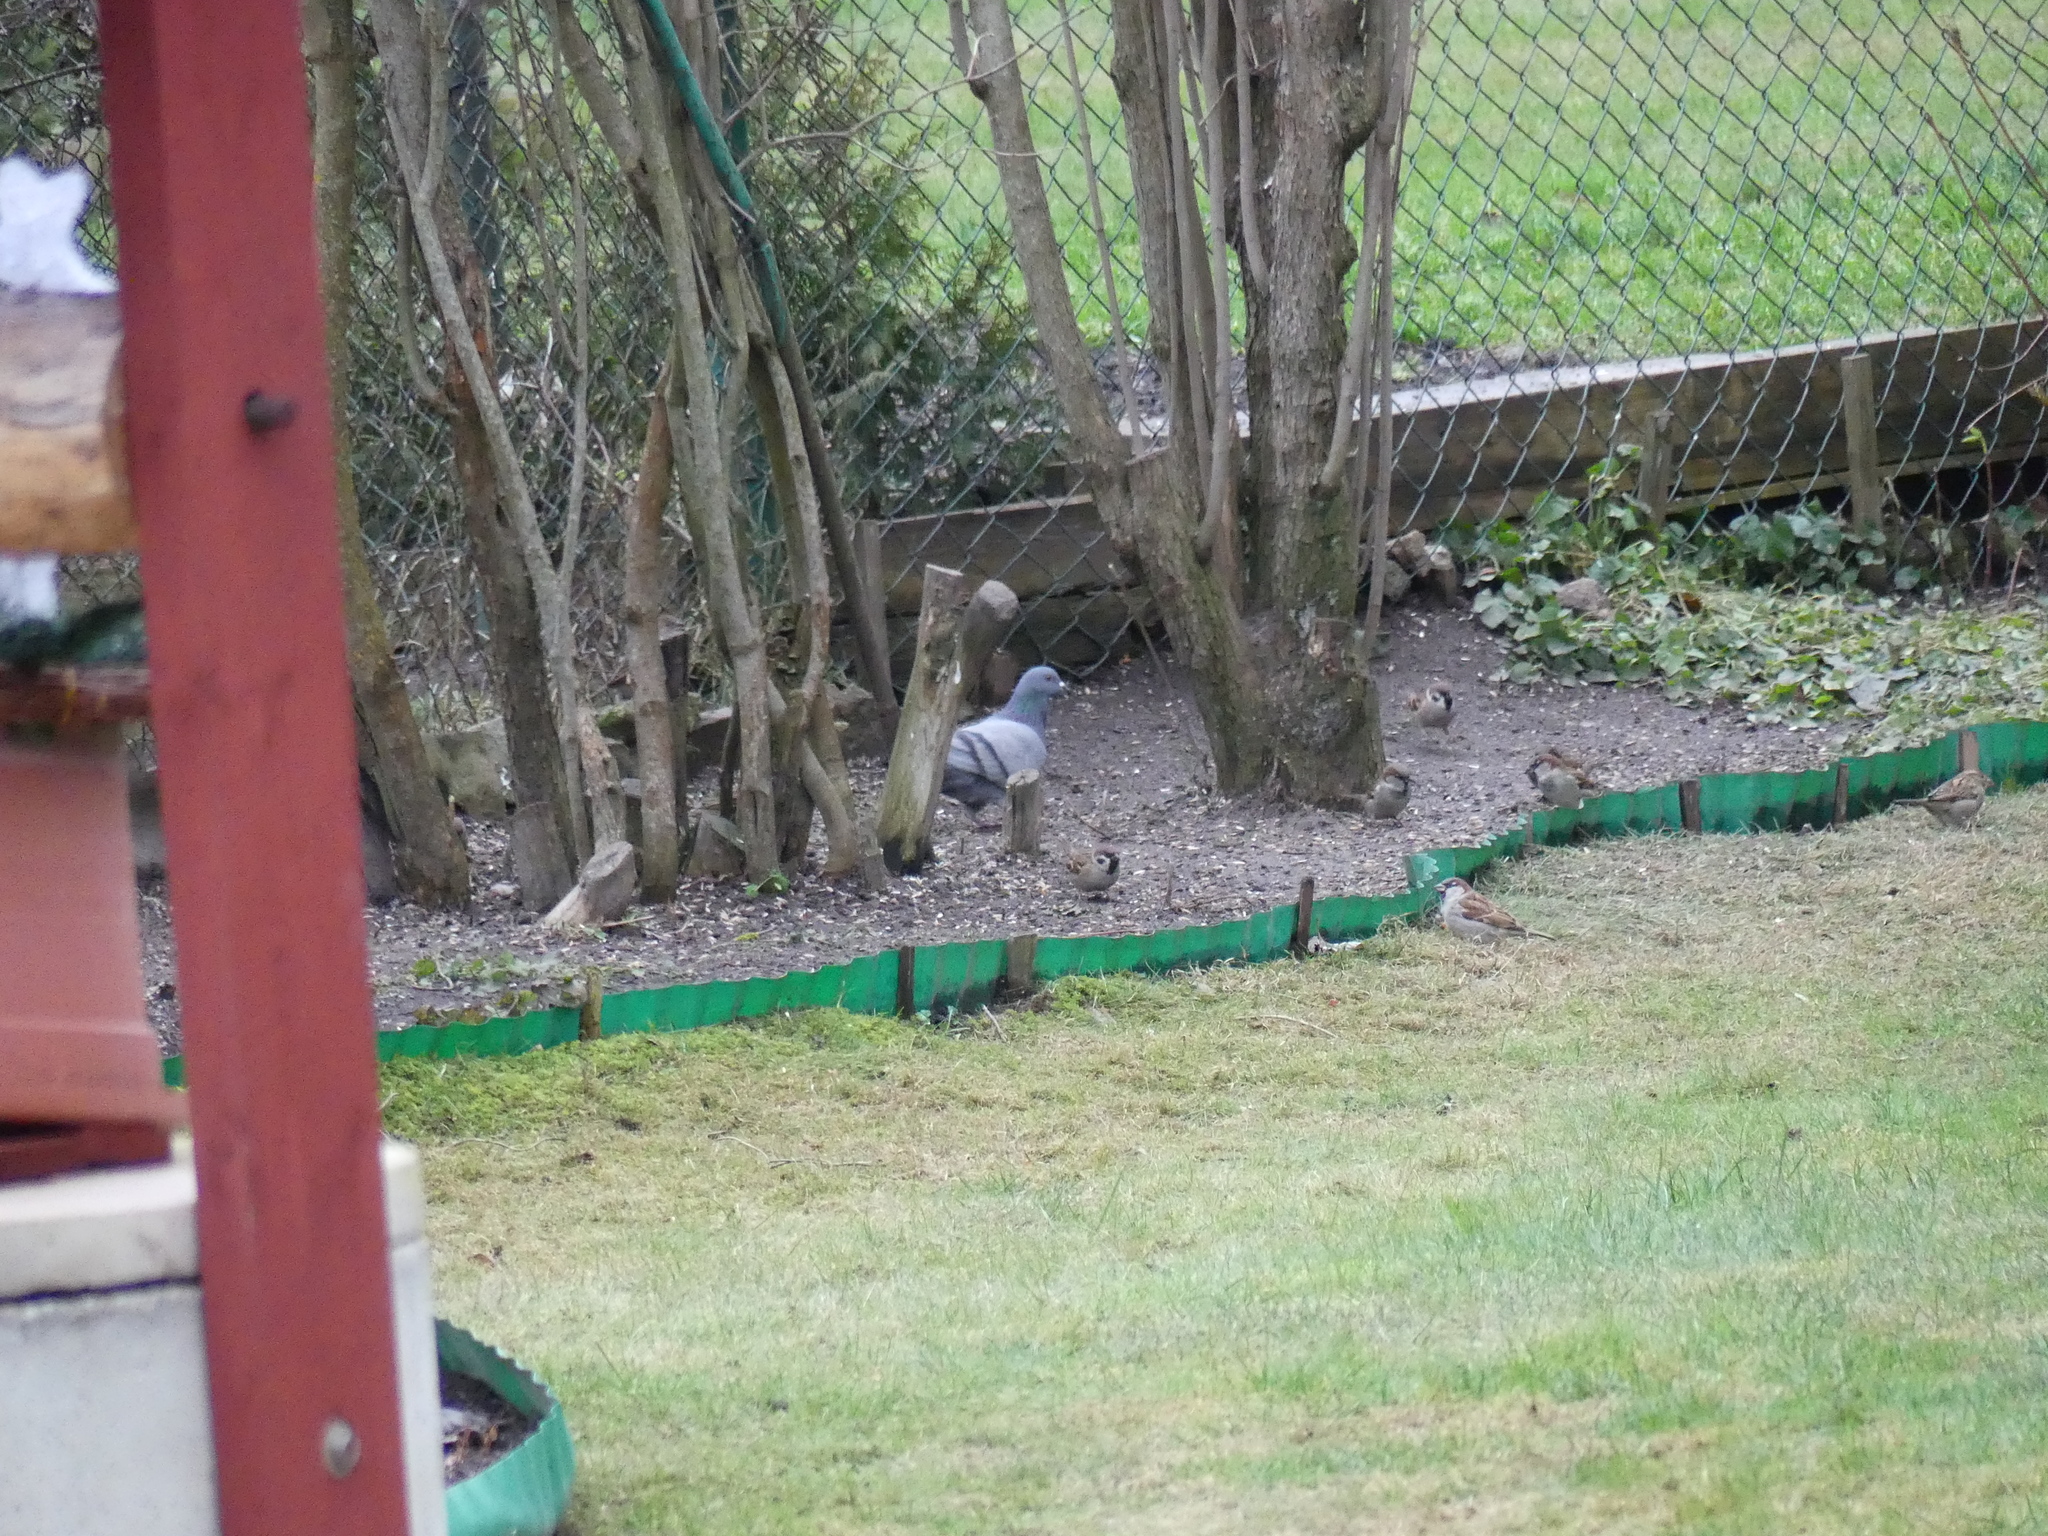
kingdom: Animalia
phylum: Chordata
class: Aves
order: Passeriformes
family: Passeridae
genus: Passer
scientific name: Passer domesticus
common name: House sparrow
